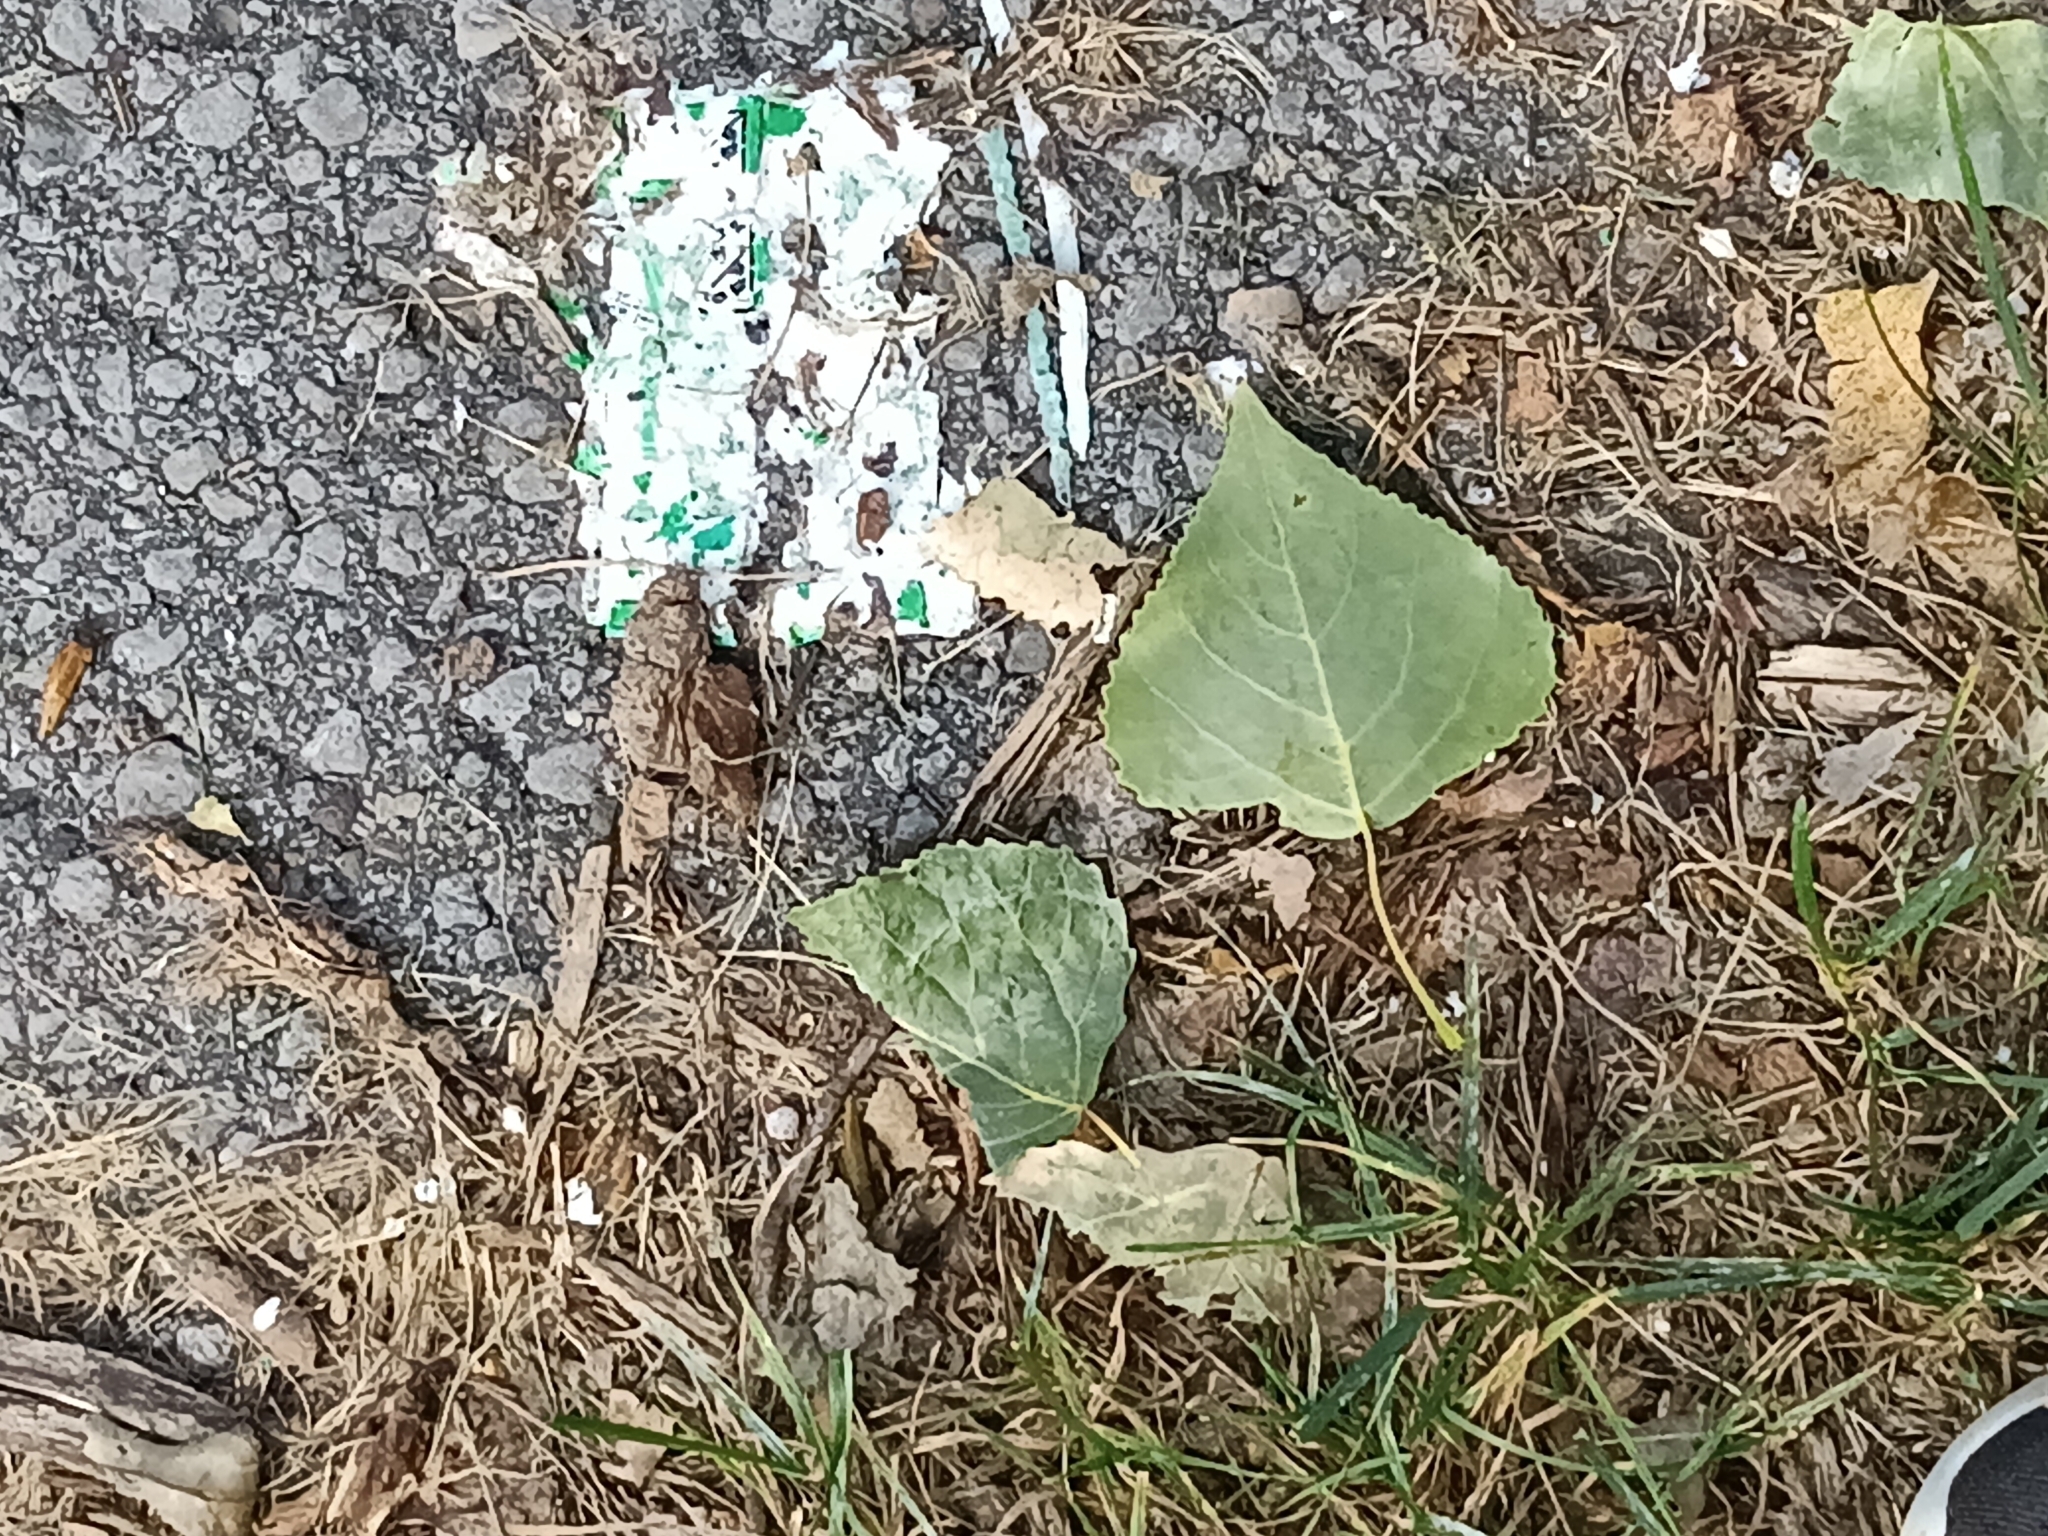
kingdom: Plantae
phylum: Tracheophyta
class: Magnoliopsida
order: Malpighiales
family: Salicaceae
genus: Populus
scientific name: Populus deltoides
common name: Eastern cottonwood
